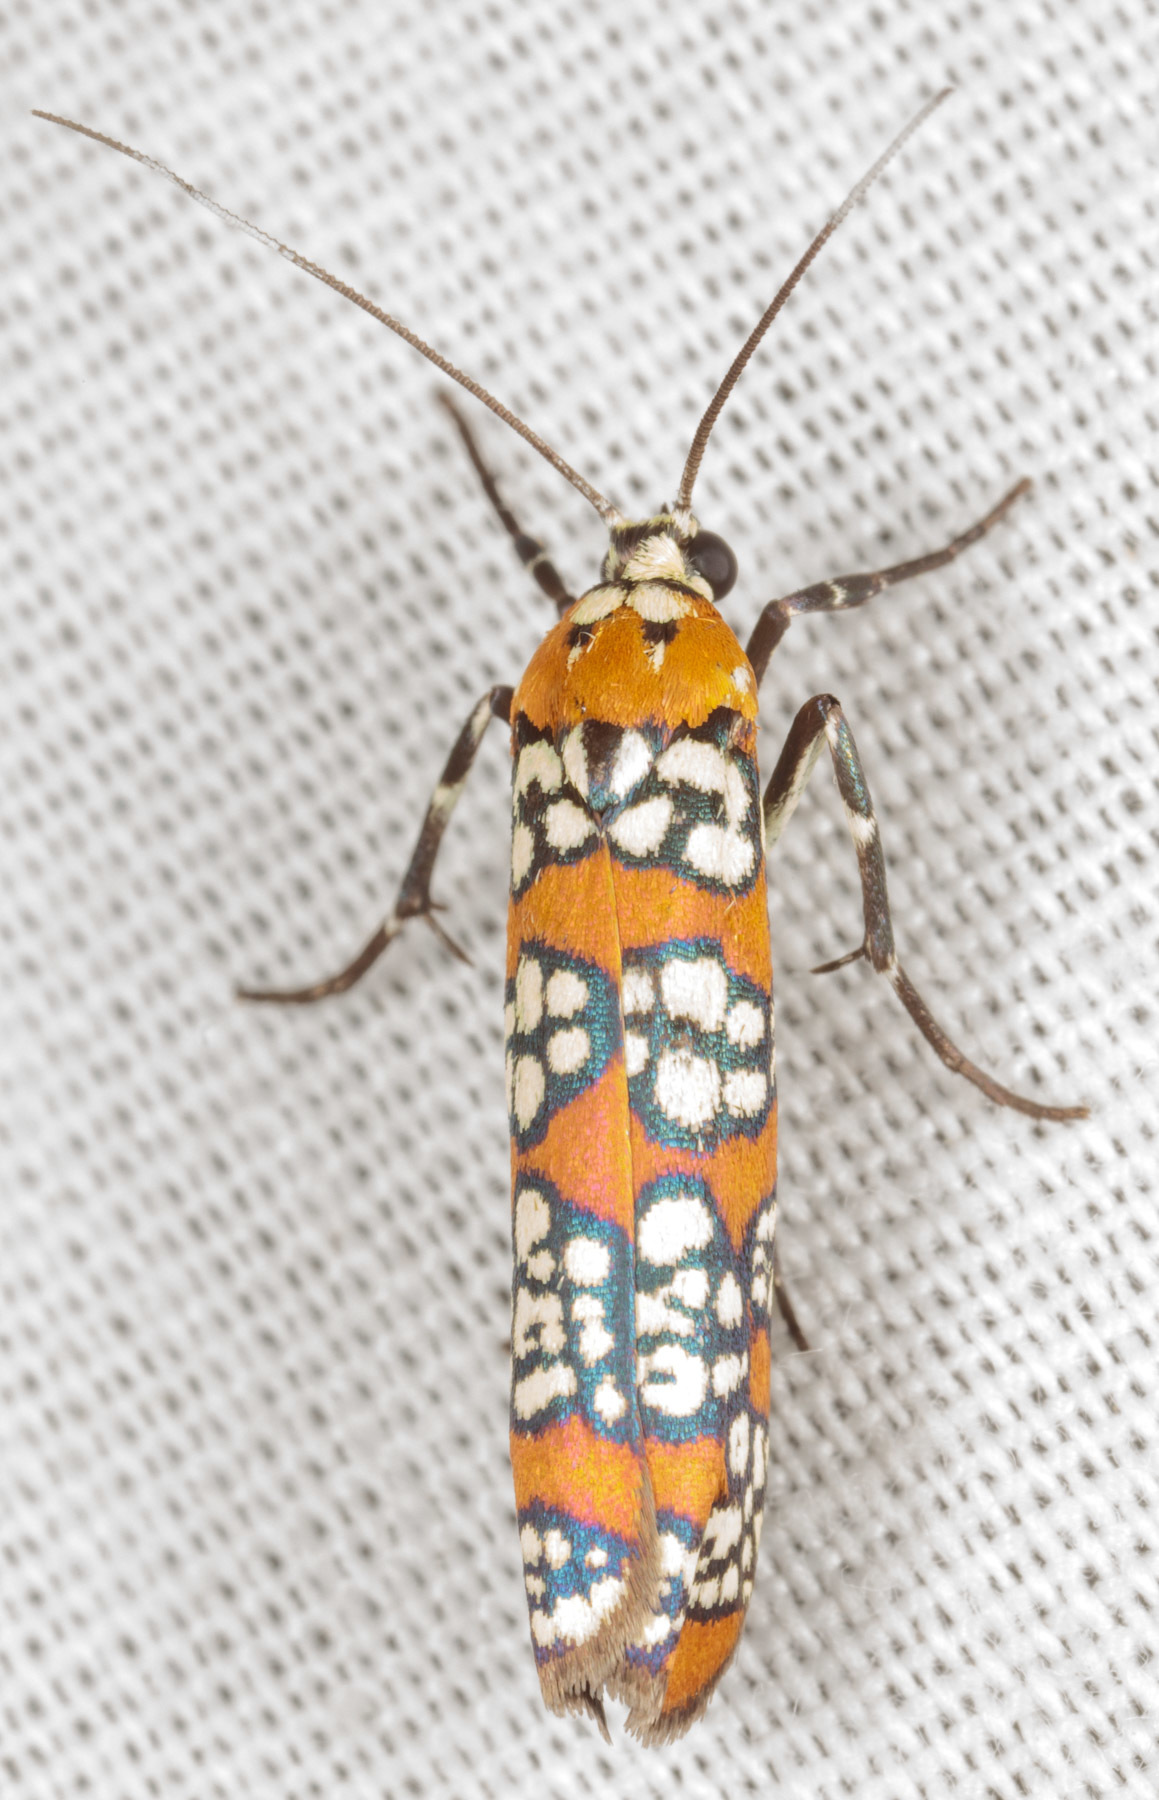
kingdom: Animalia
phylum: Arthropoda
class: Insecta
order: Lepidoptera
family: Attevidae
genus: Atteva
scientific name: Atteva punctella
